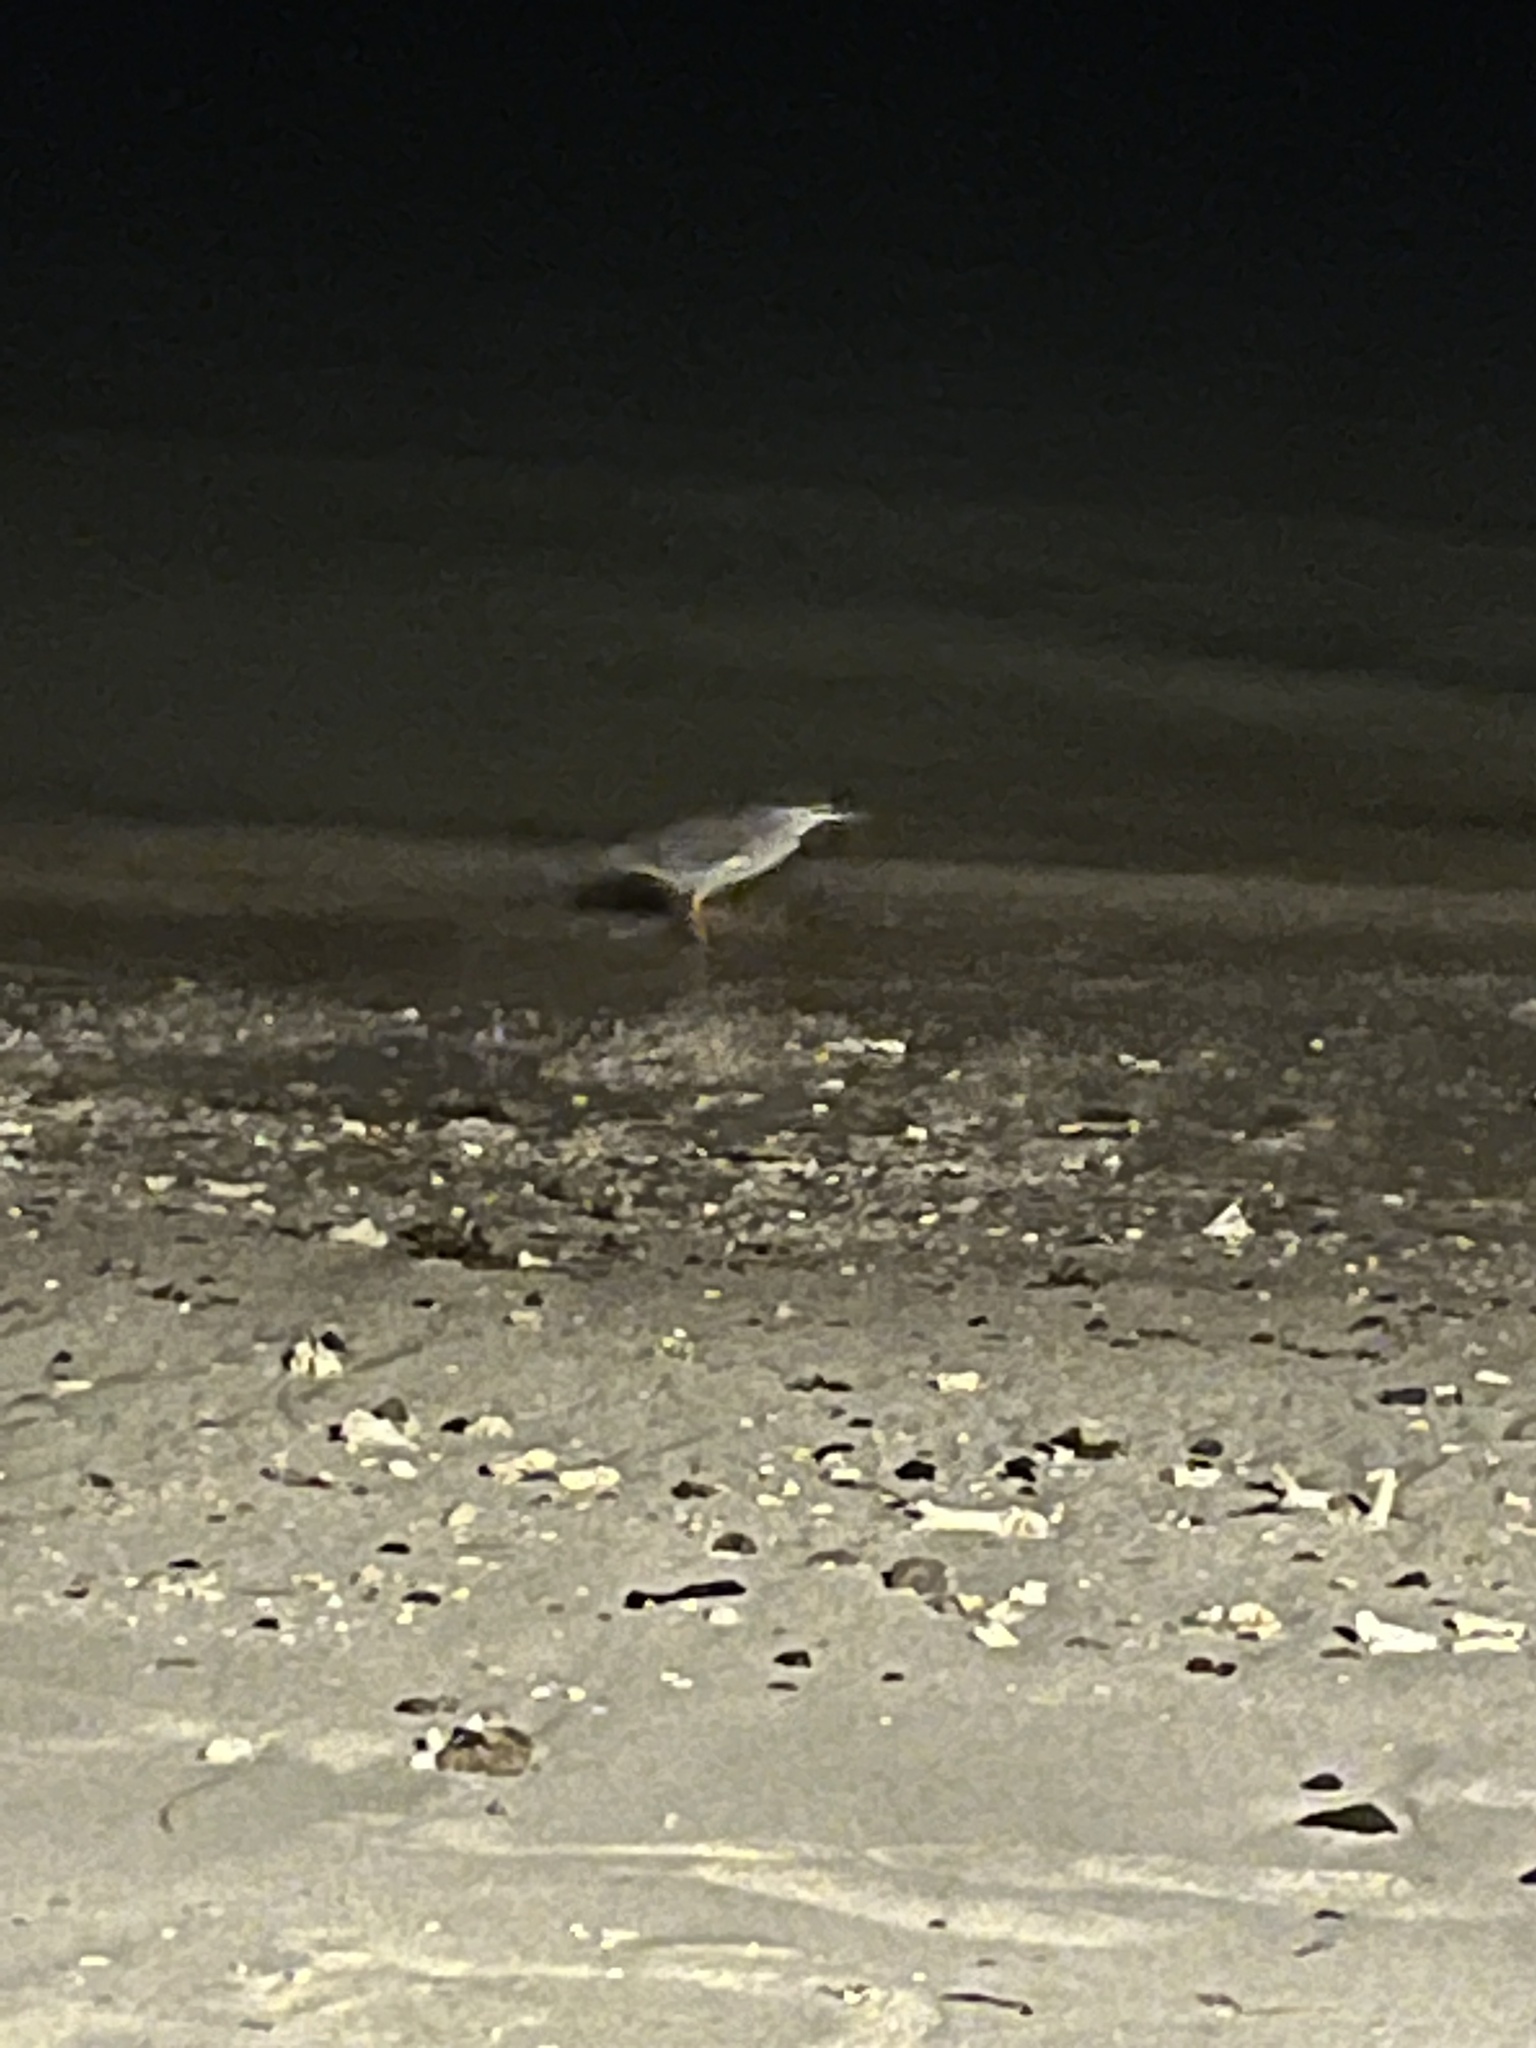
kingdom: Animalia
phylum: Chordata
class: Aves
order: Pelecaniformes
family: Ardeidae
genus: Butorides
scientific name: Butorides striata
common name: Striated heron
